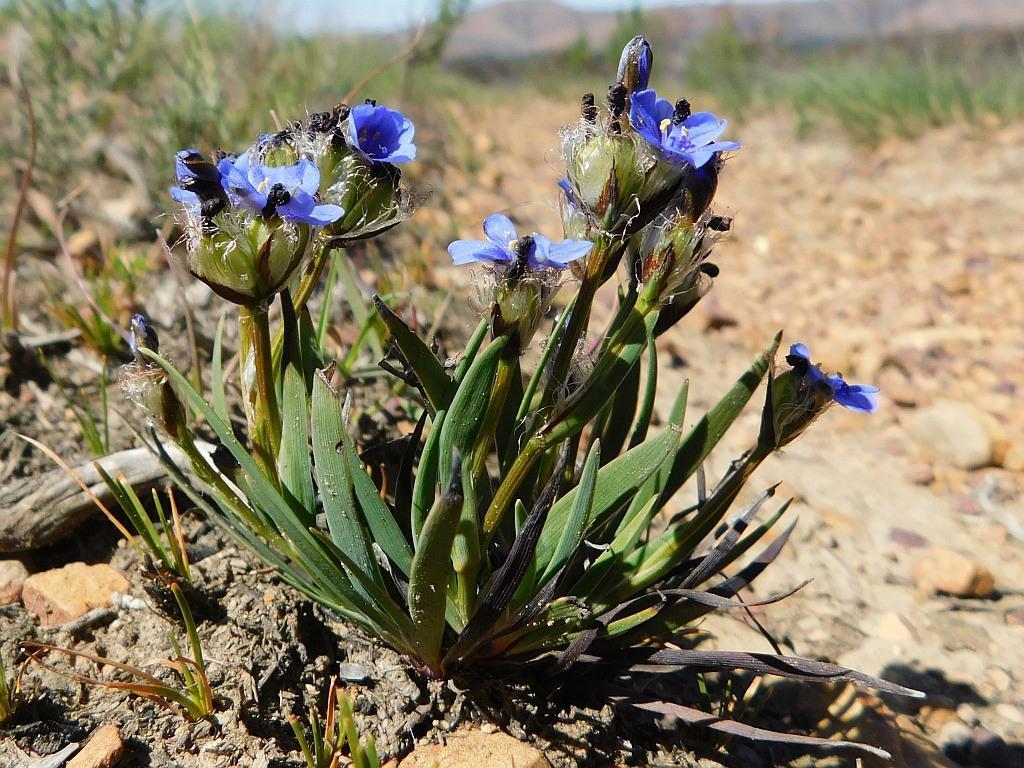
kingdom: Plantae
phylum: Tracheophyta
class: Liliopsida
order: Asparagales
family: Iridaceae
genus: Aristea
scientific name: Aristea africana
